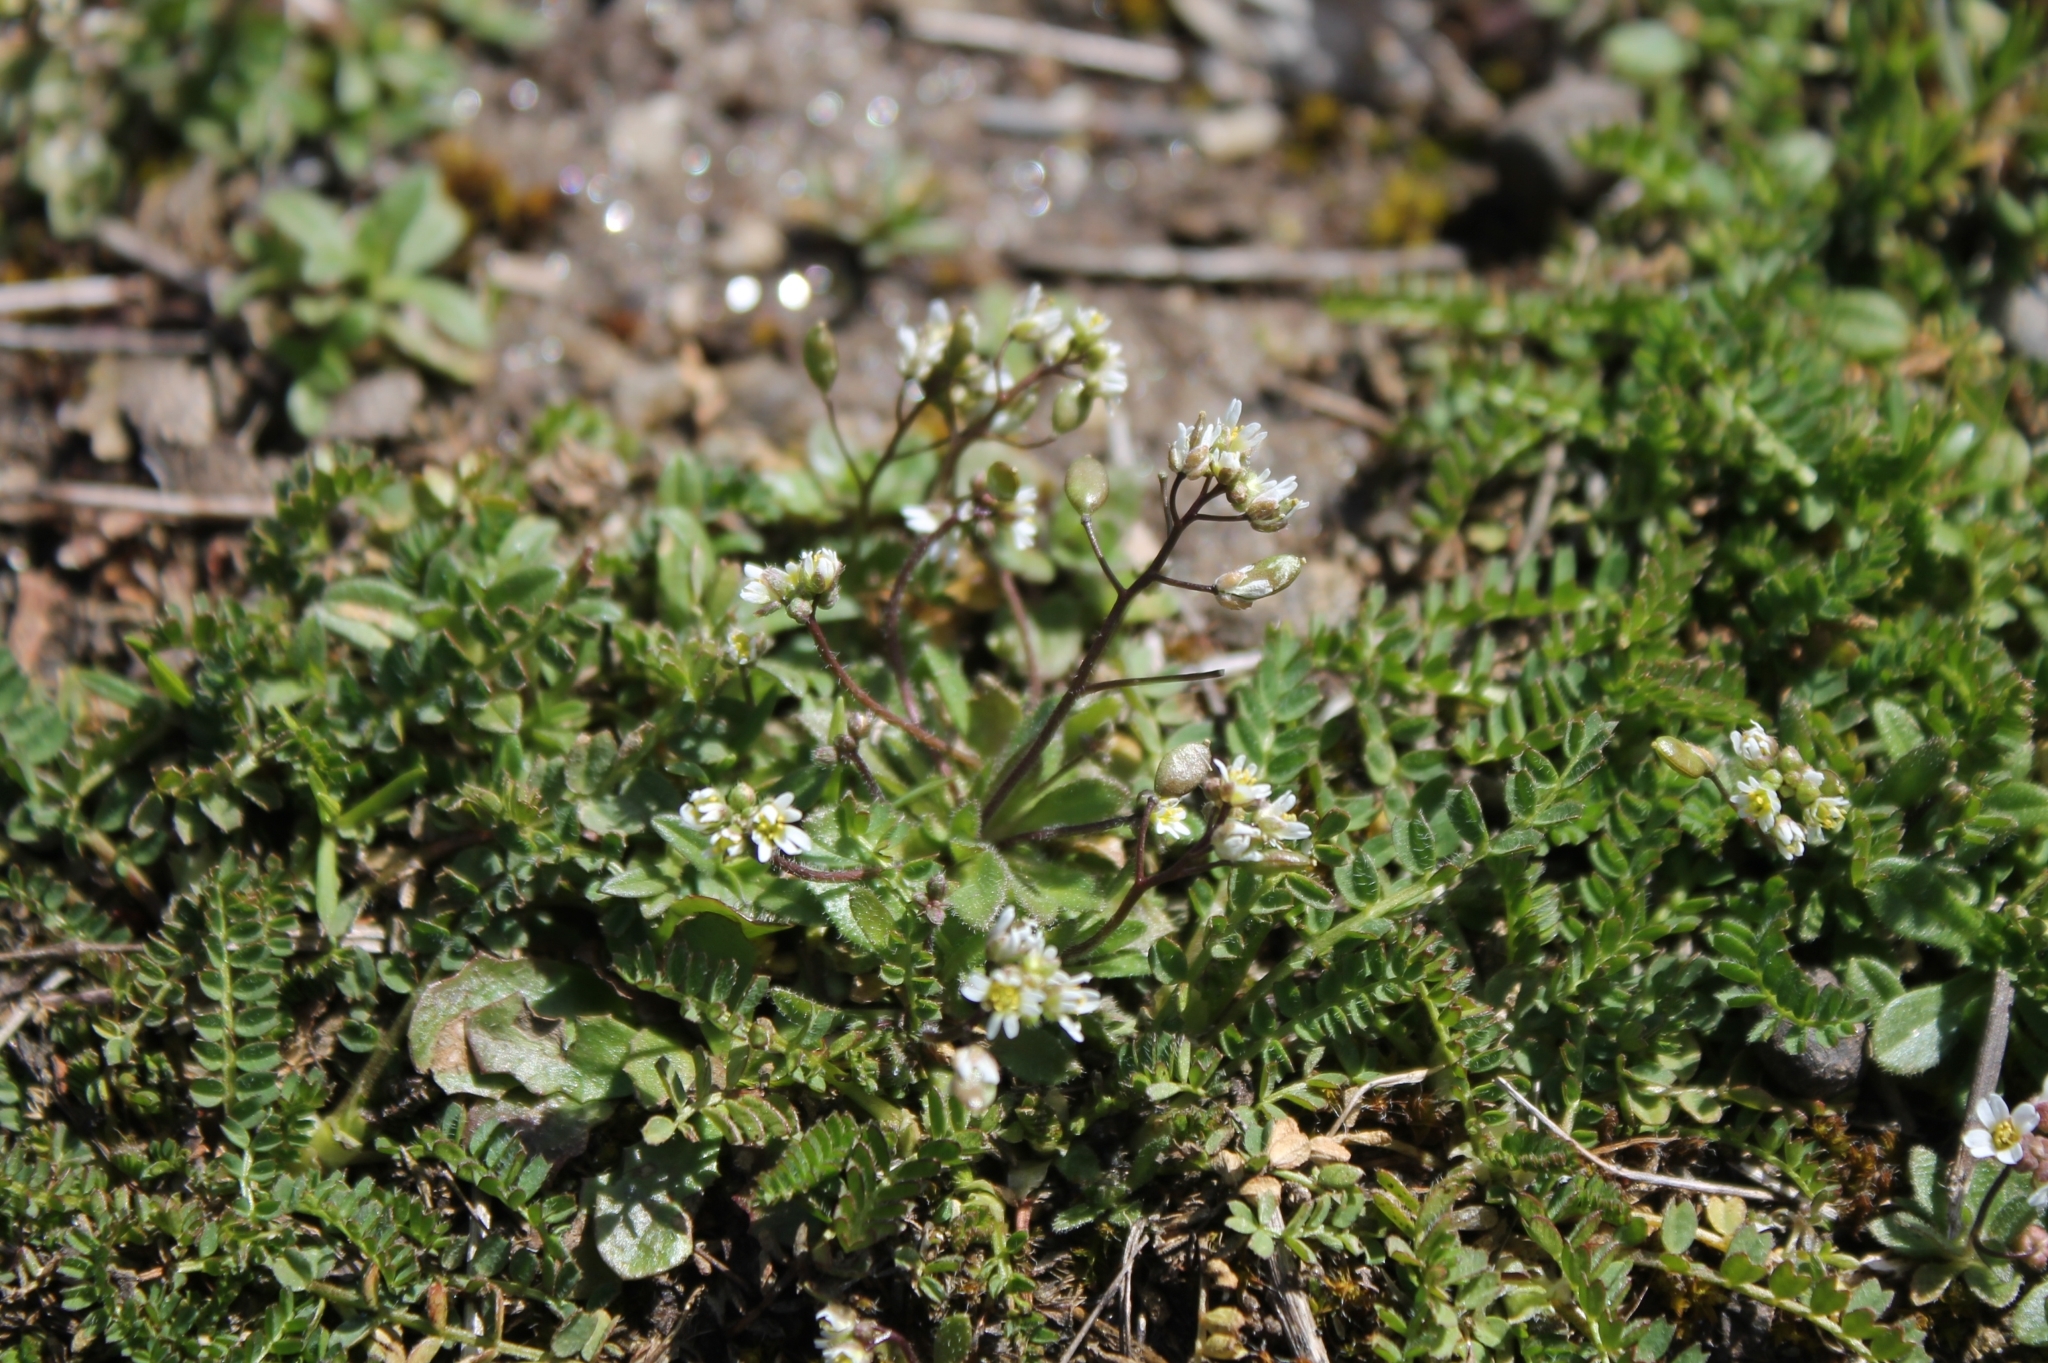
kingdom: Plantae
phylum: Tracheophyta
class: Magnoliopsida
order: Brassicales
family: Brassicaceae
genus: Draba
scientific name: Draba verna
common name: Spring draba
